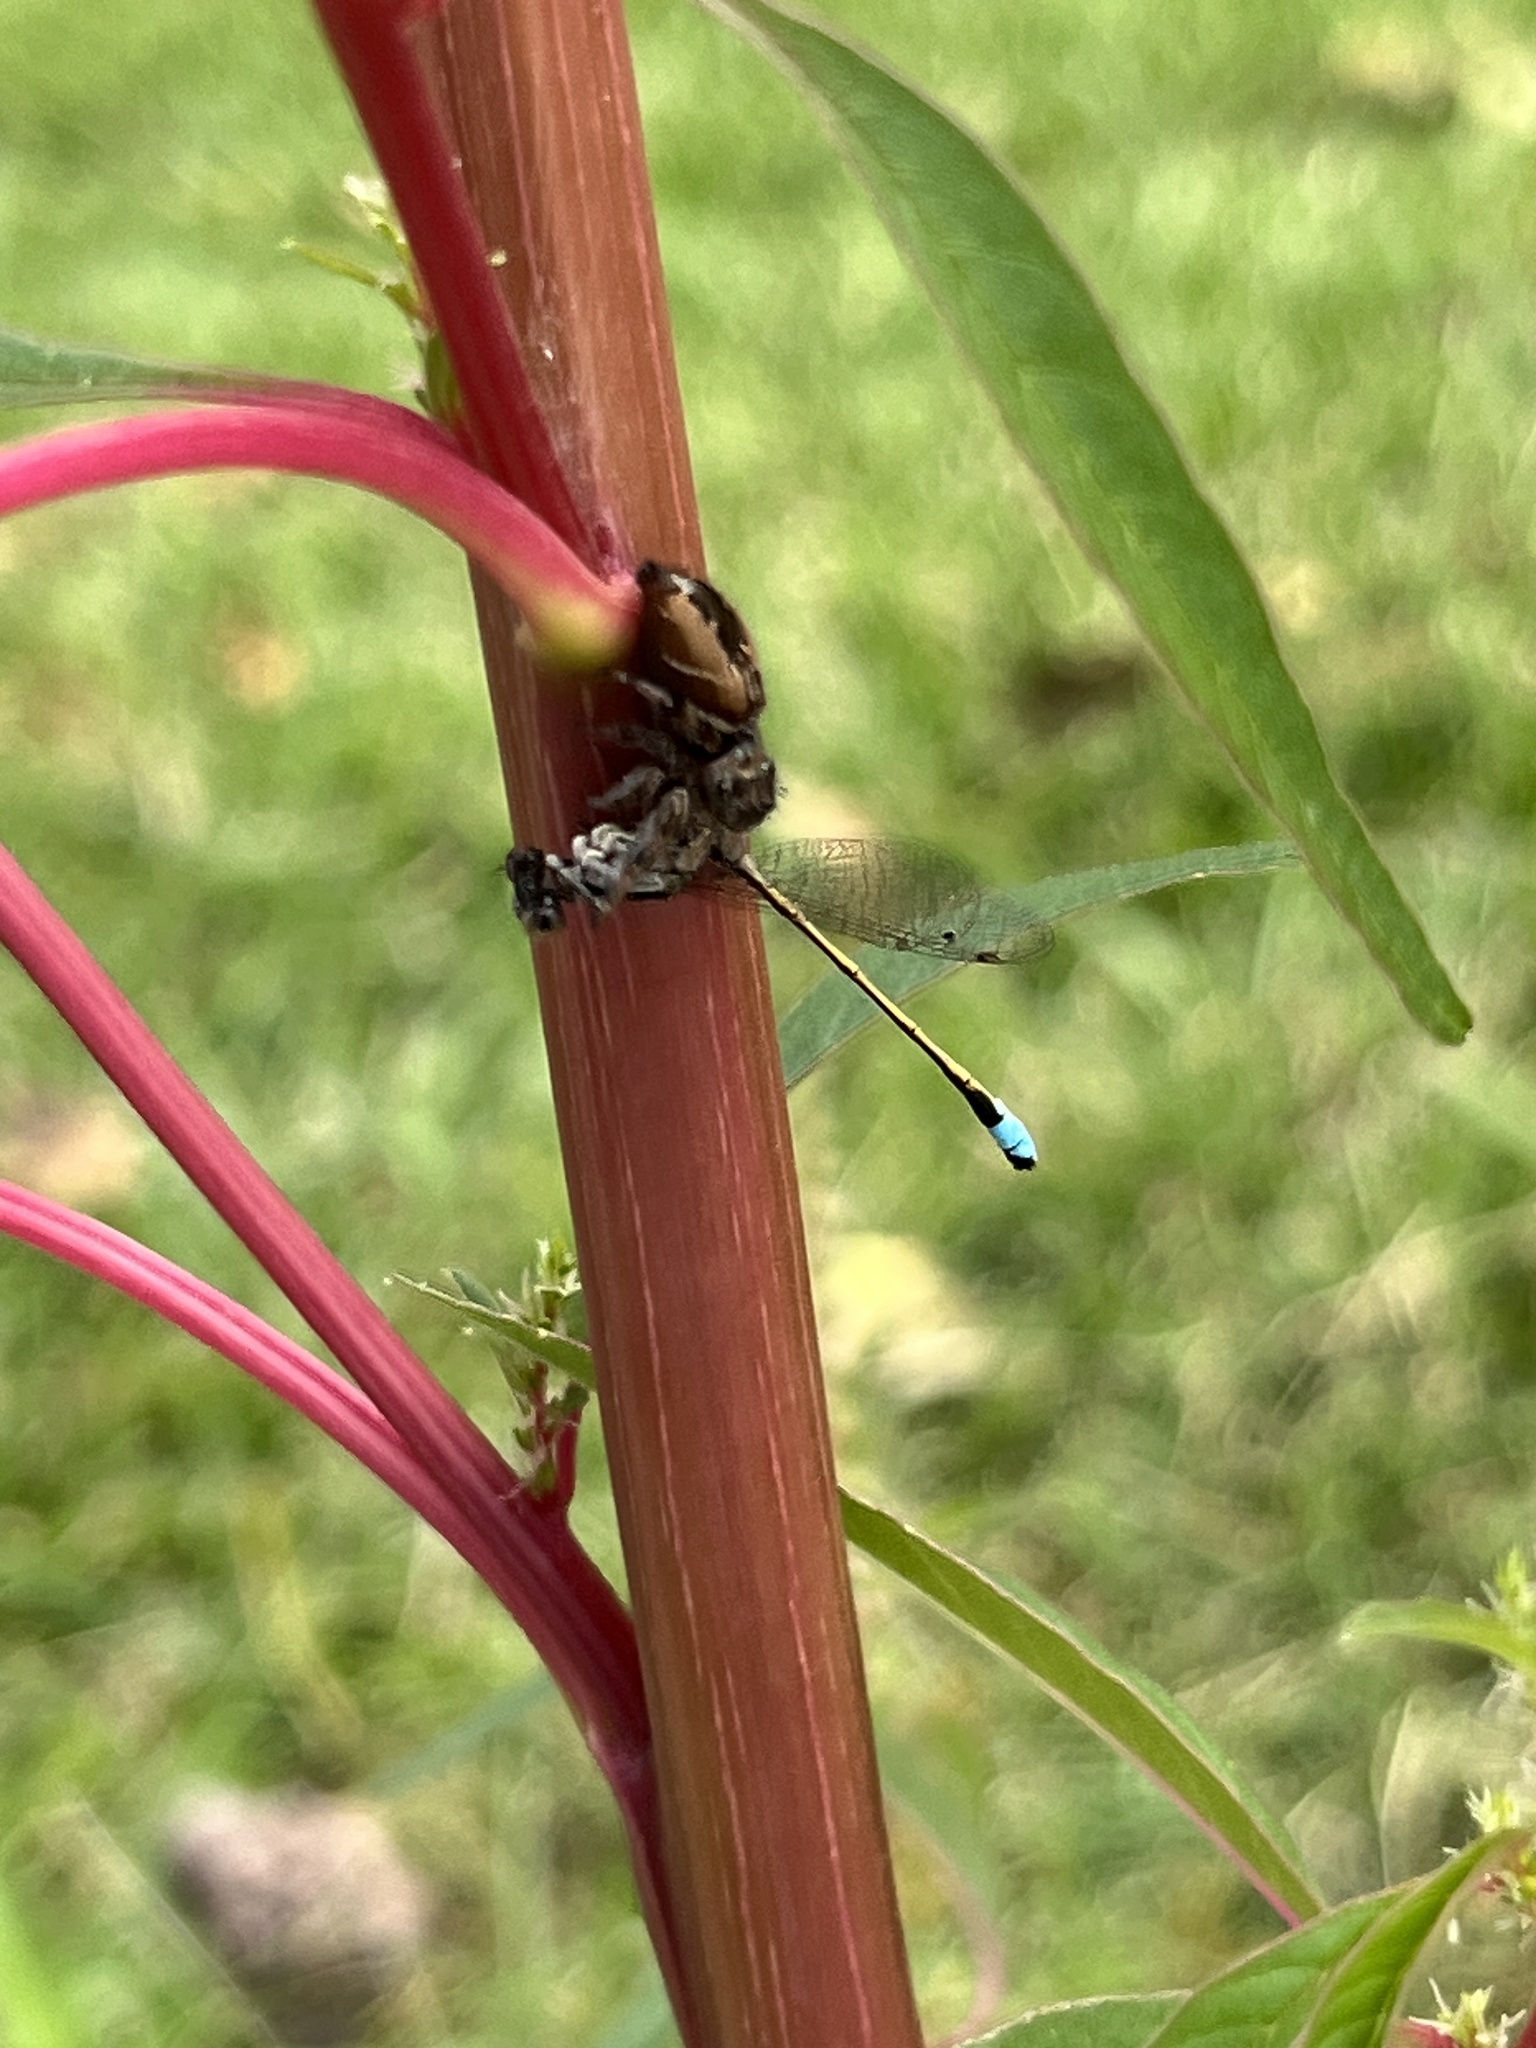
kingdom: Animalia
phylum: Arthropoda
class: Insecta
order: Odonata
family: Coenagrionidae
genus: Ischnura
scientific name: Ischnura ramburii
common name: Rambur's forktail
